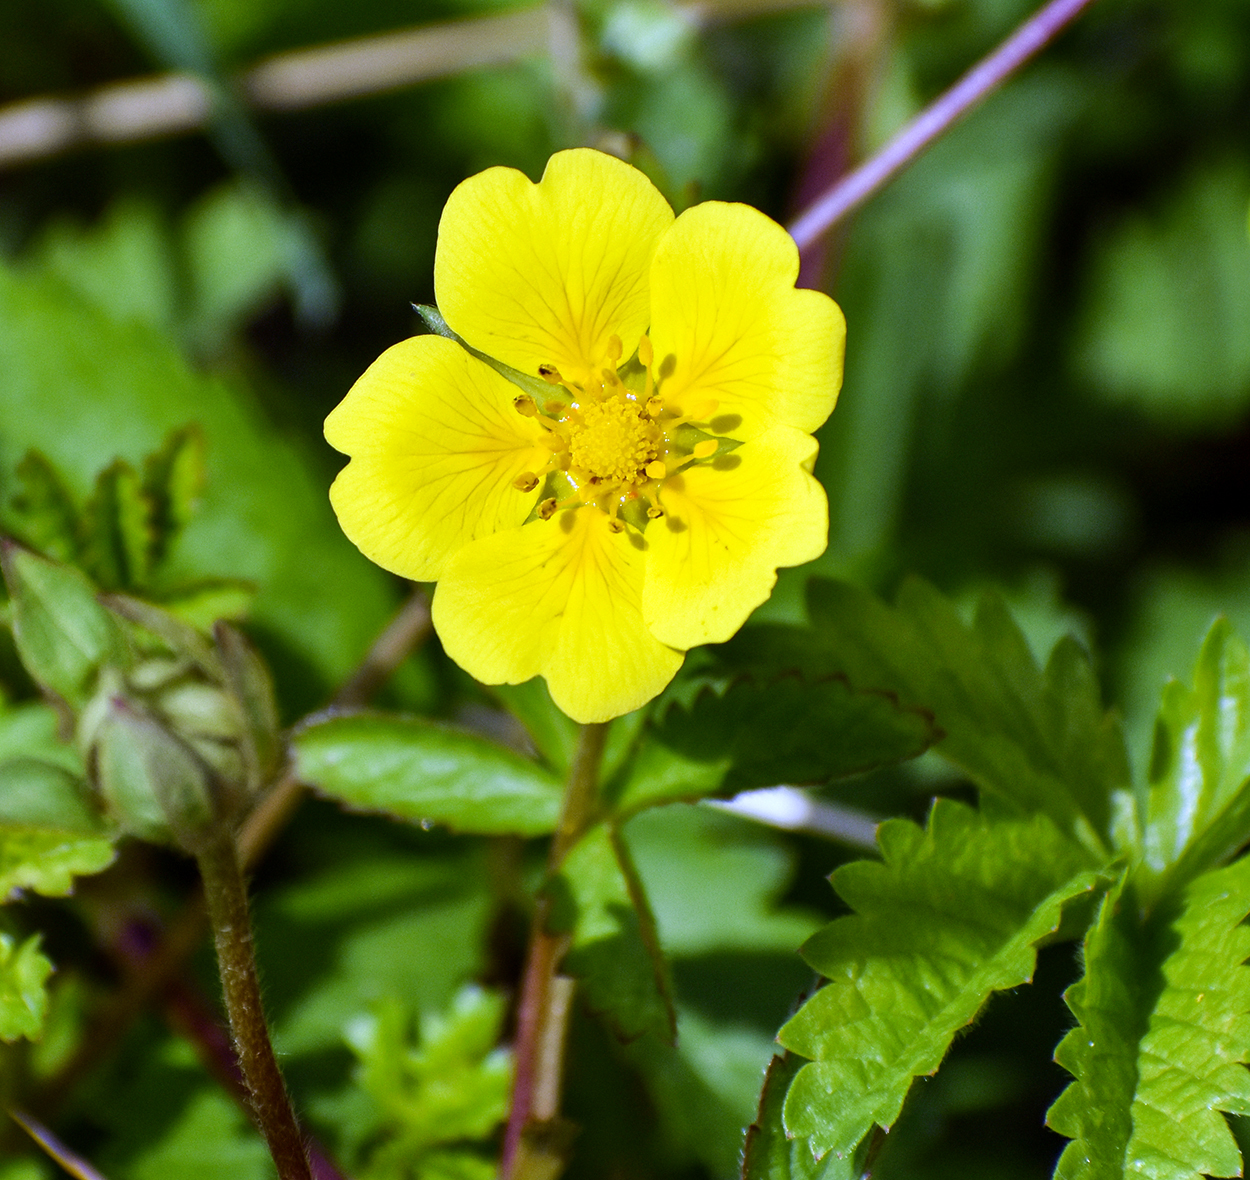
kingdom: Plantae
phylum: Tracheophyta
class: Magnoliopsida
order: Rosales
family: Rosaceae
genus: Potentilla
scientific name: Potentilla reptans
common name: Creeping cinquefoil
